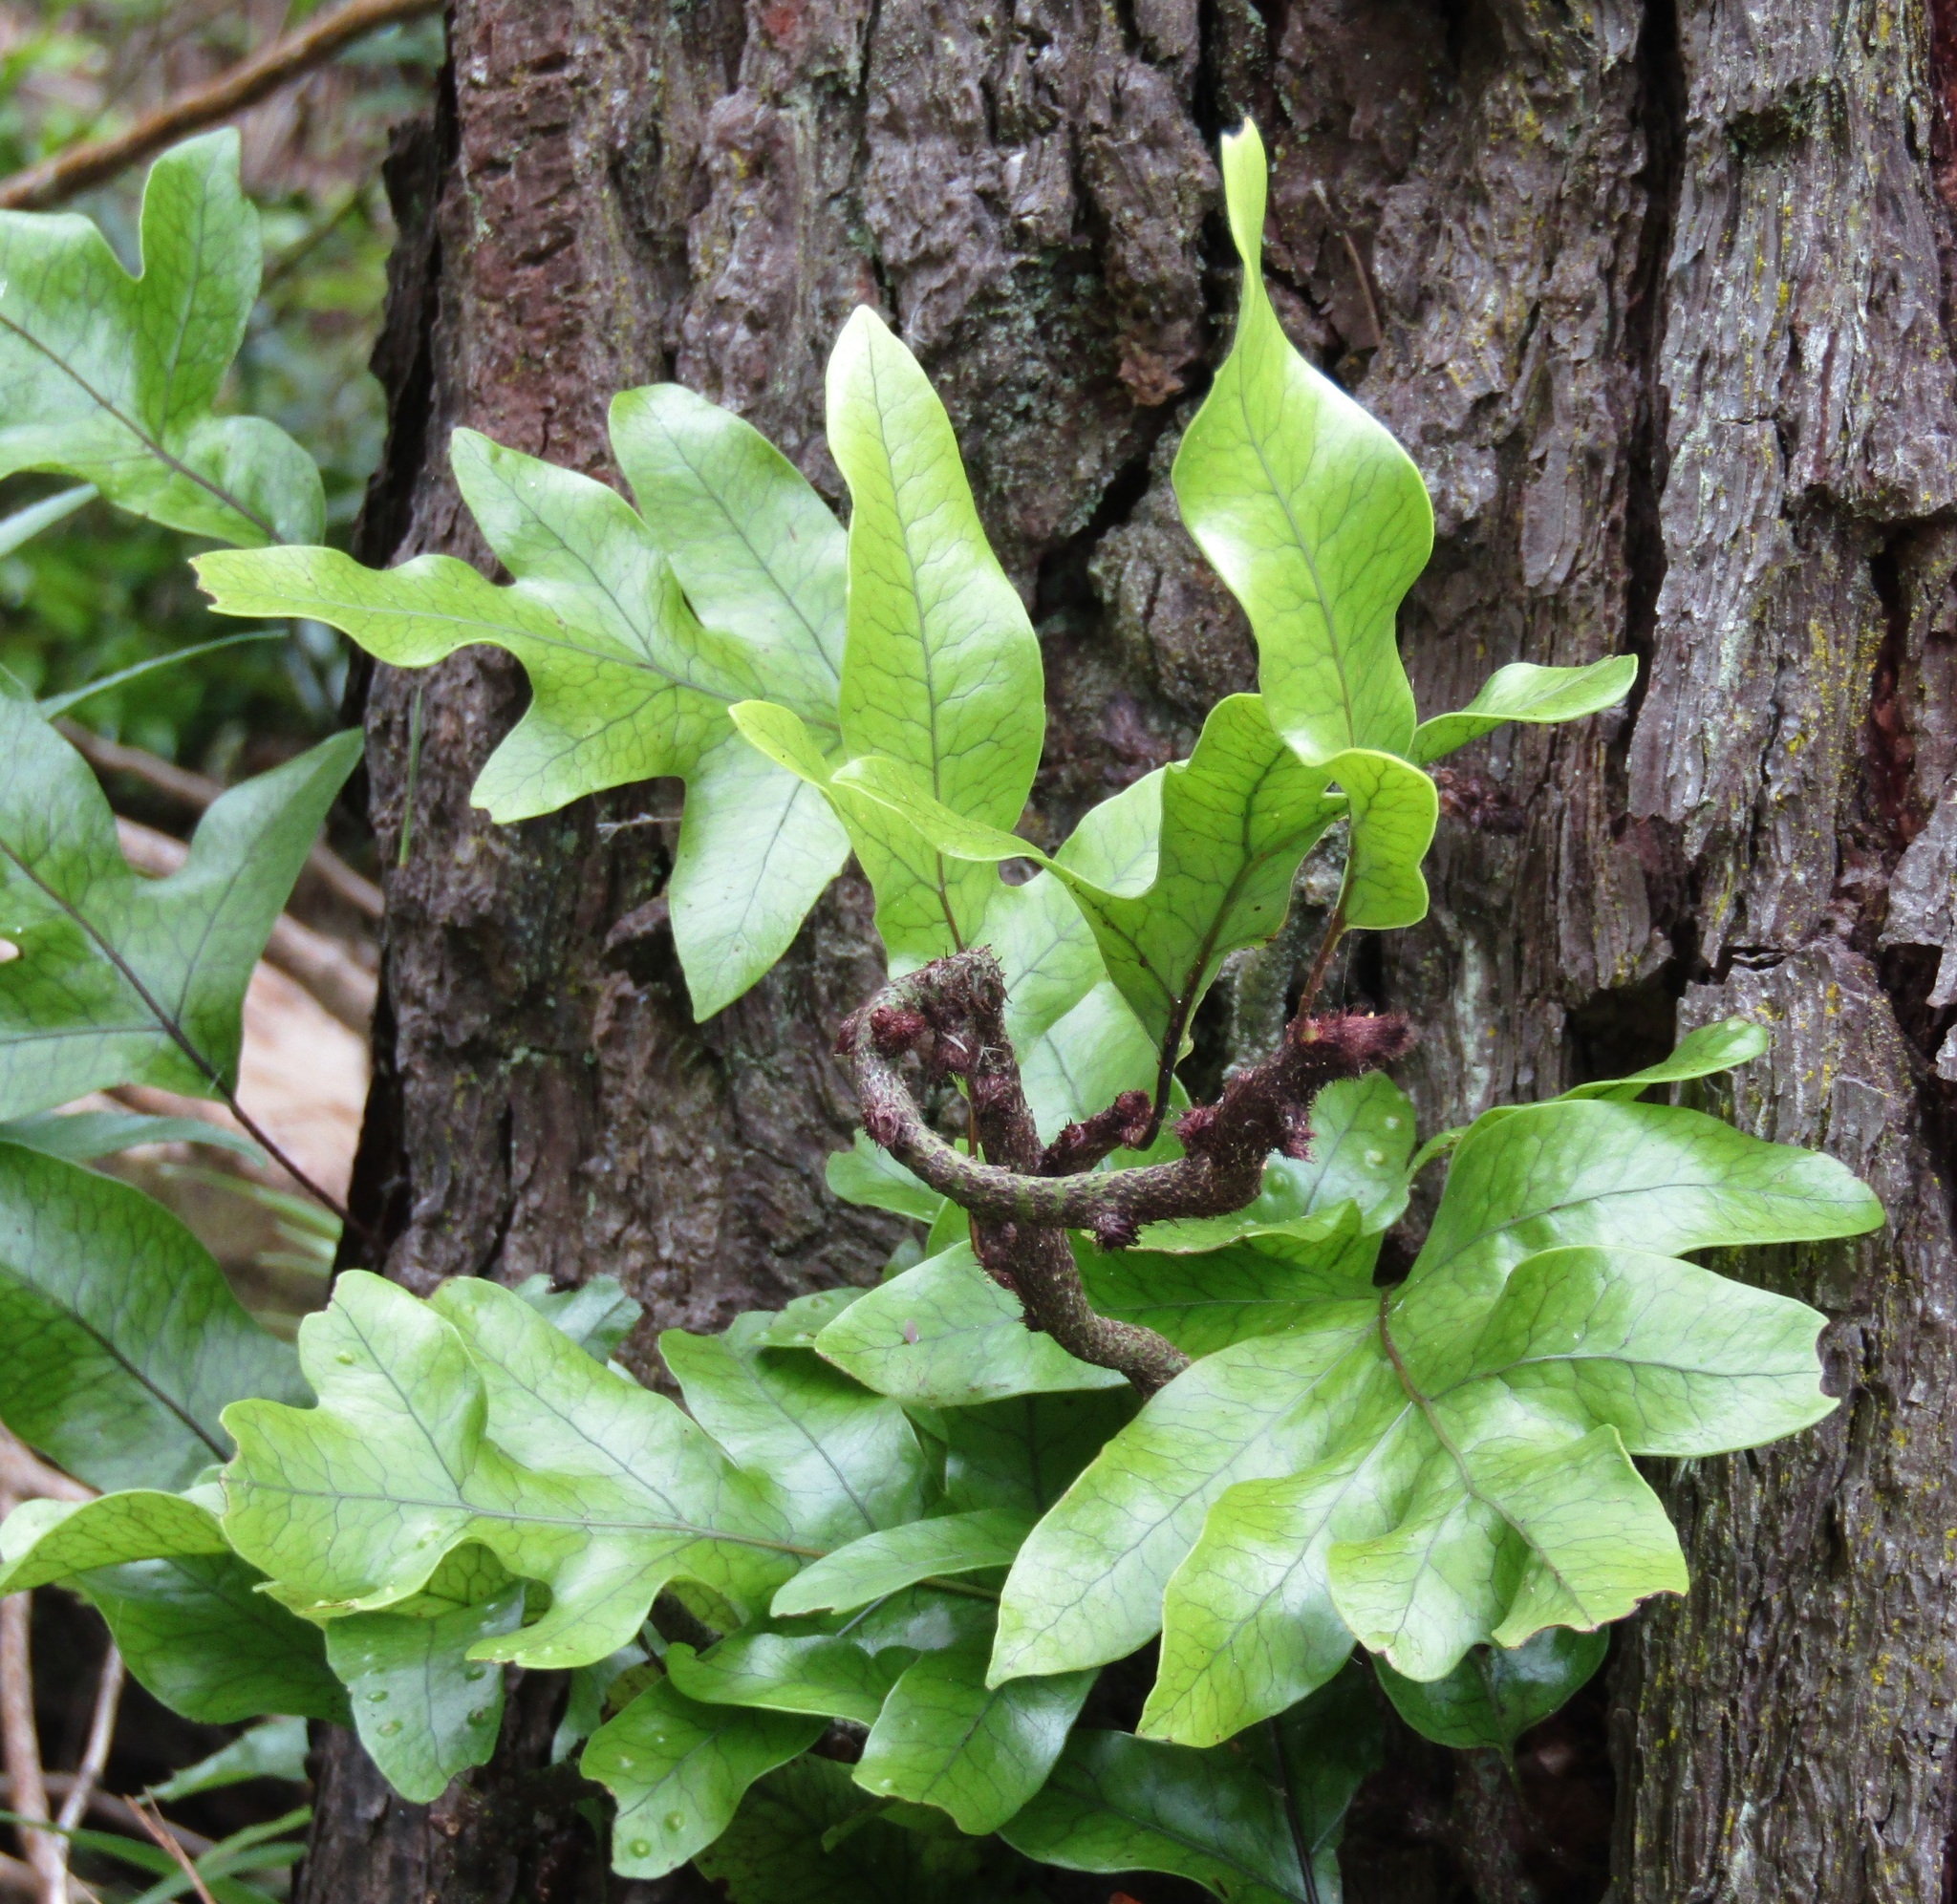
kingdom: Plantae
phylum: Tracheophyta
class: Polypodiopsida
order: Polypodiales
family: Polypodiaceae
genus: Lecanopteris
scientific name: Lecanopteris pustulata
